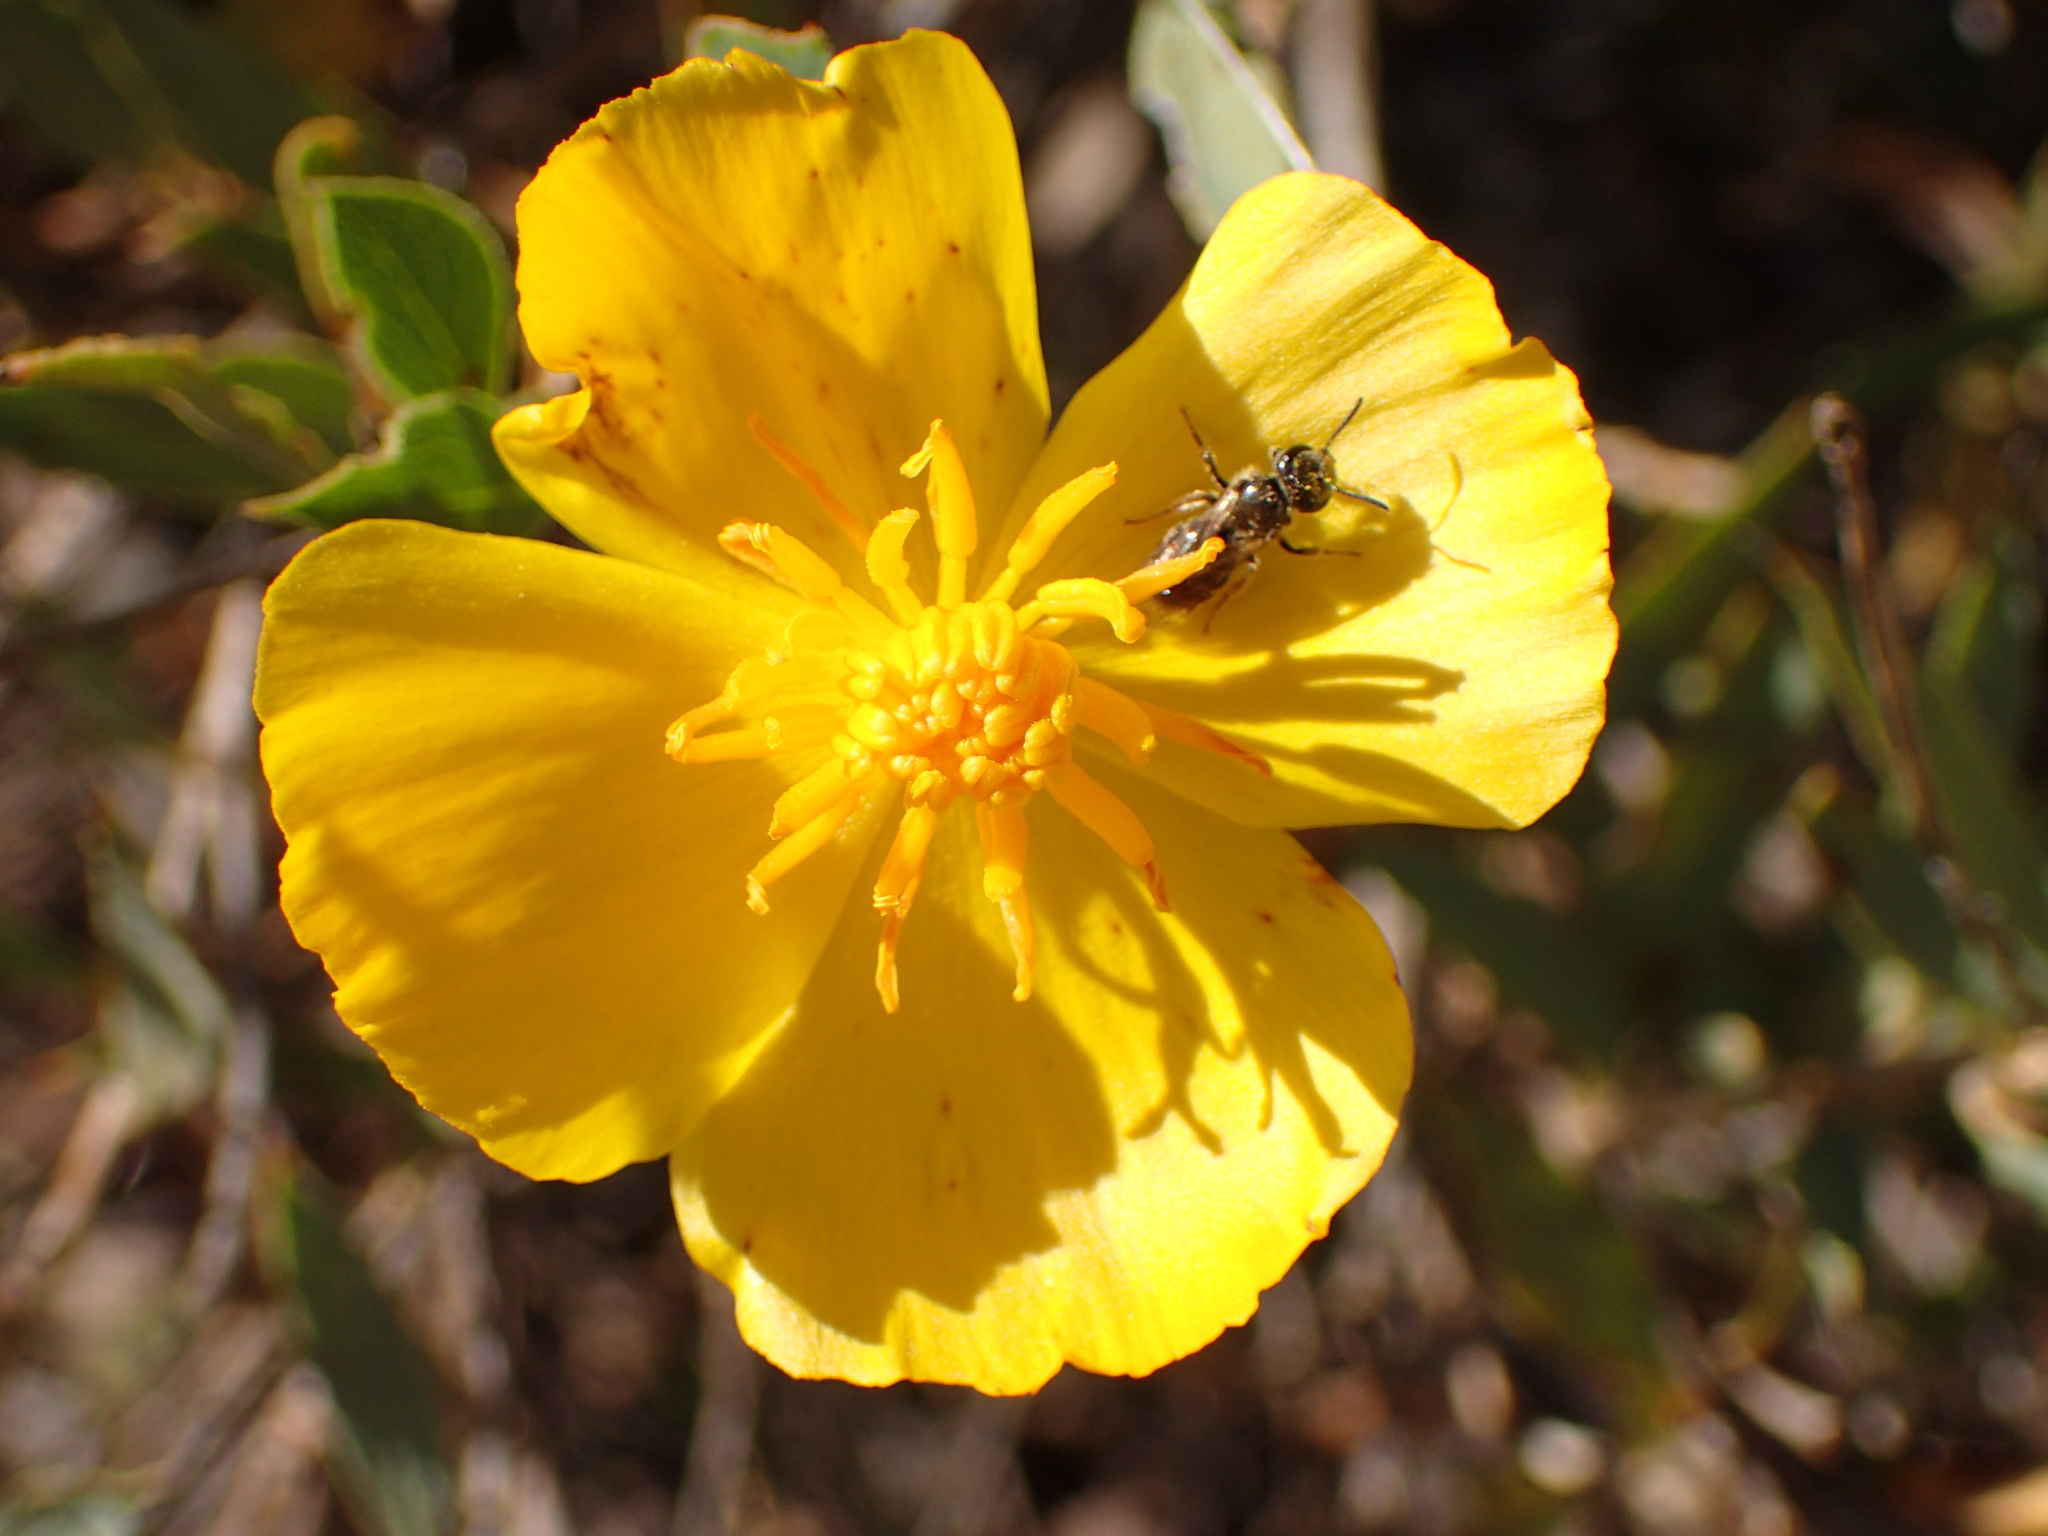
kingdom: Plantae
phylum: Tracheophyta
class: Magnoliopsida
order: Ranunculales
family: Papaveraceae
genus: Dendromecon
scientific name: Dendromecon rigida
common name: Tree poppy
